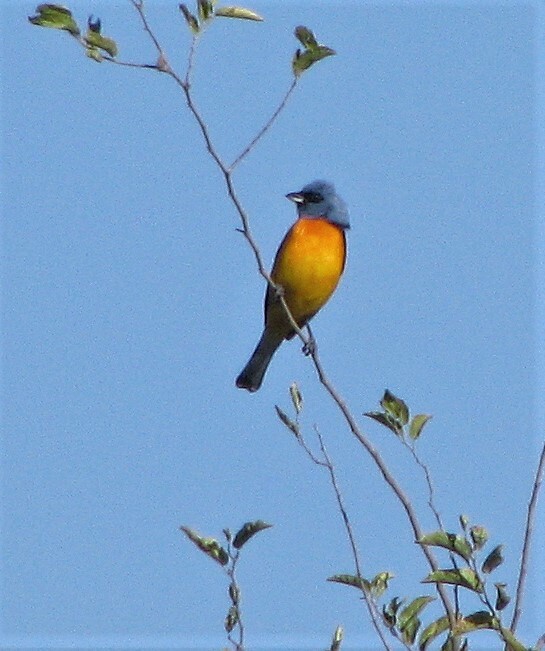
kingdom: Animalia
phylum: Chordata
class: Aves
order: Passeriformes
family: Thraupidae
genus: Rauenia
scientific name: Rauenia bonariensis
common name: Blue-and-yellow tanager
